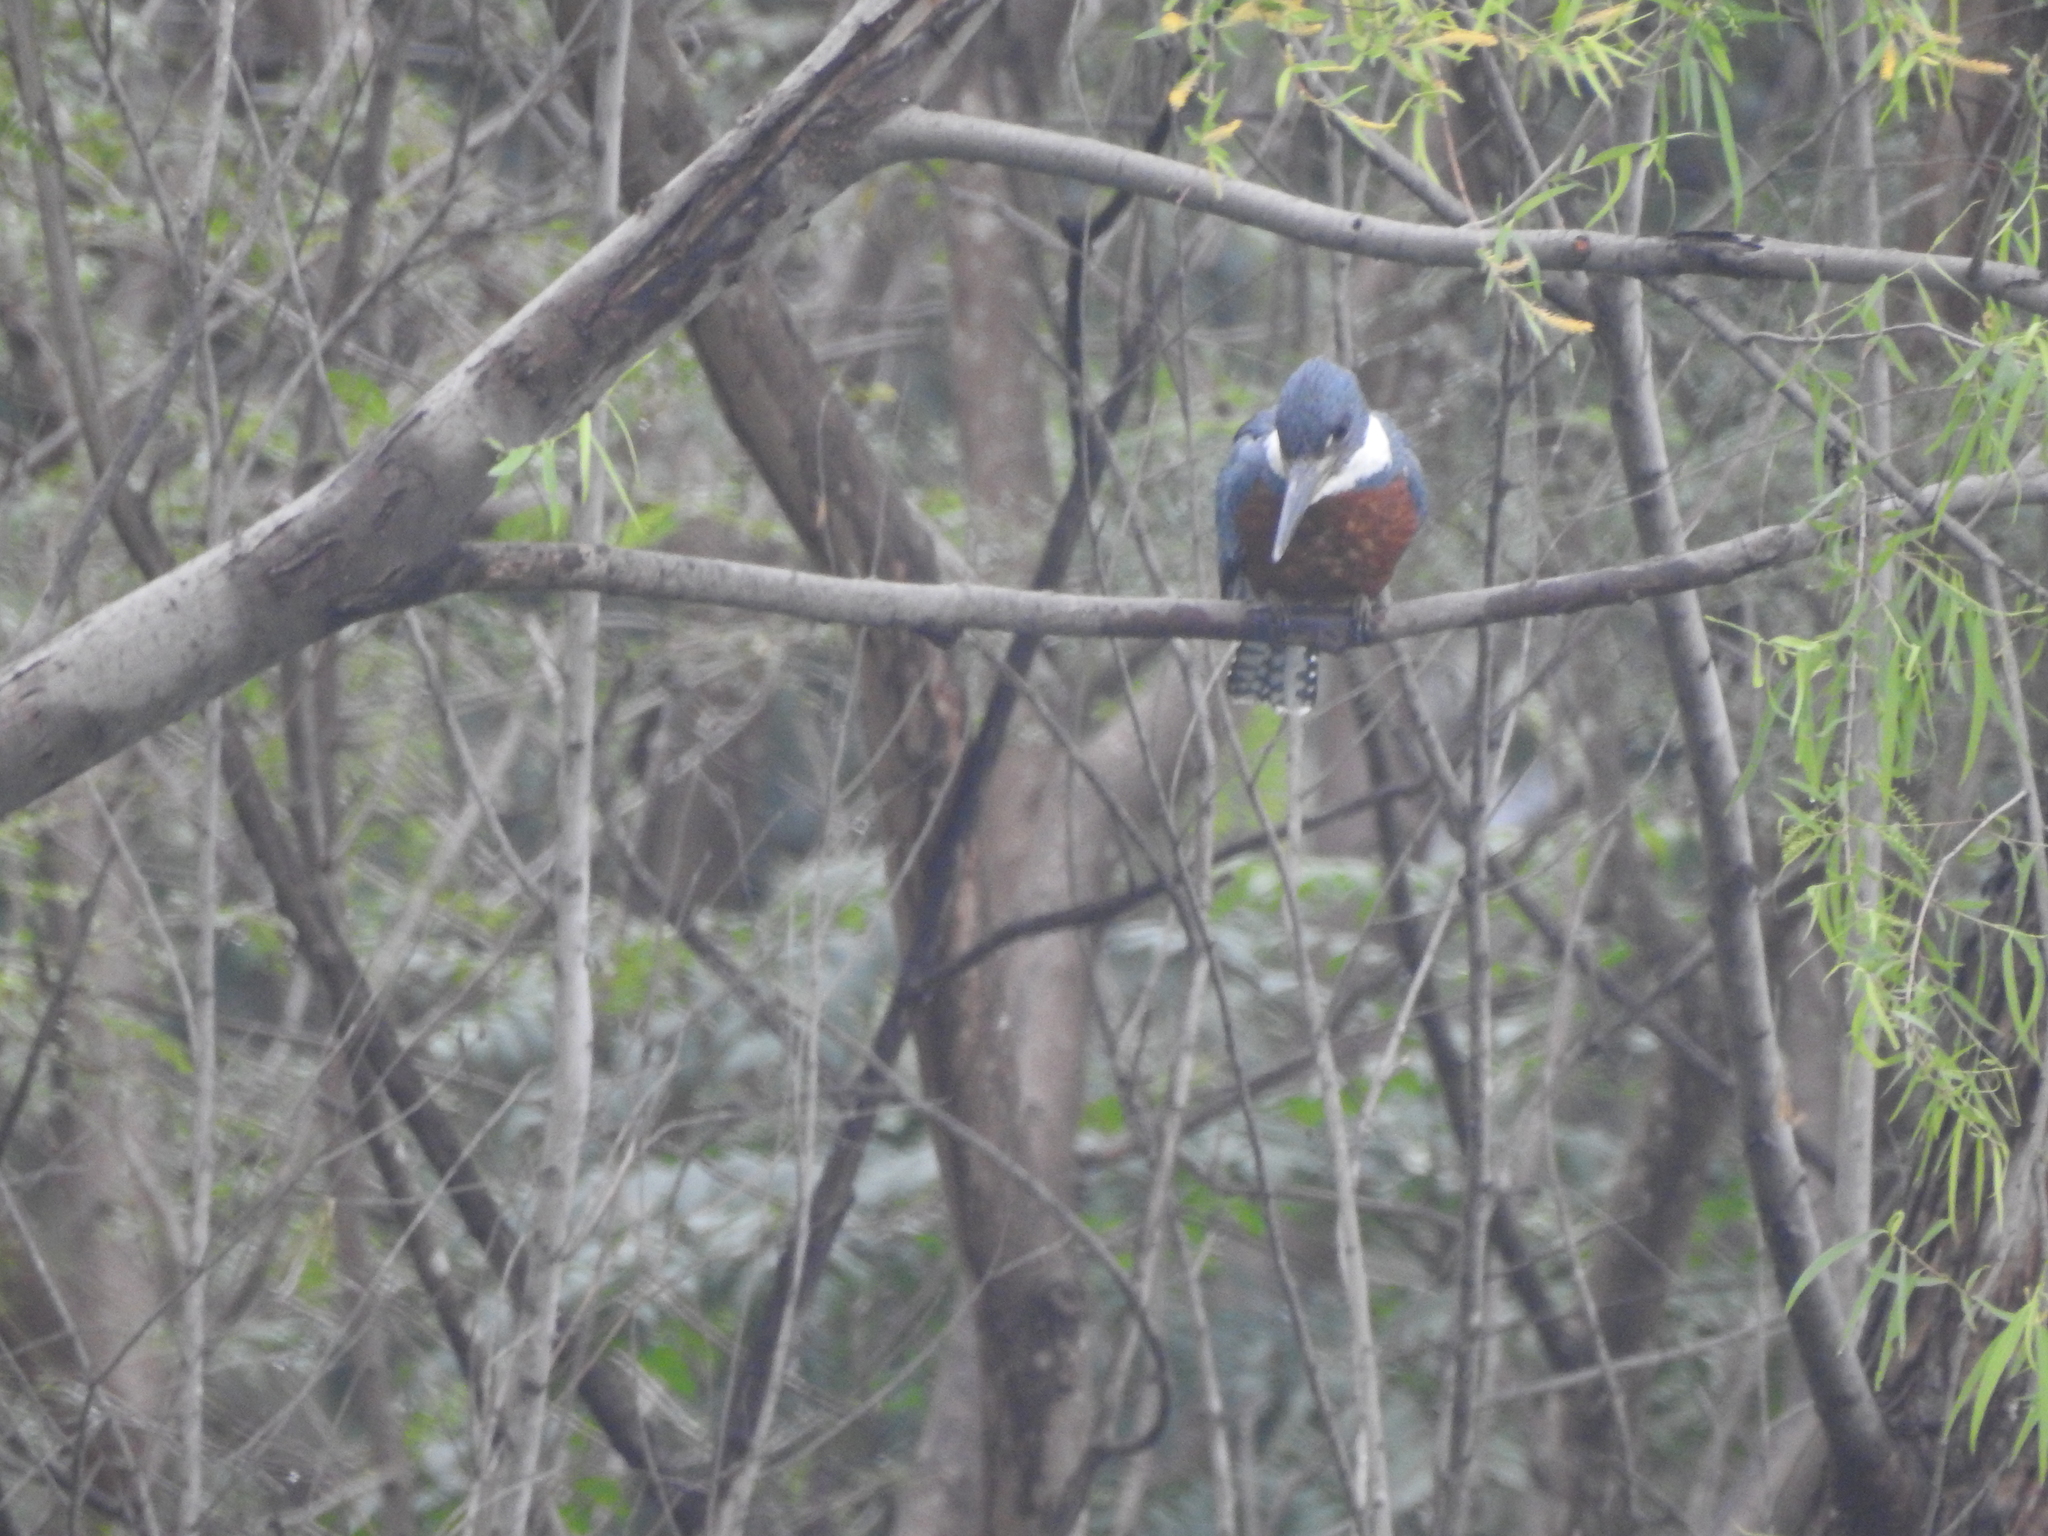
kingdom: Animalia
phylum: Chordata
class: Aves
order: Coraciiformes
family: Alcedinidae
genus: Megaceryle
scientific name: Megaceryle torquata
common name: Ringed kingfisher
